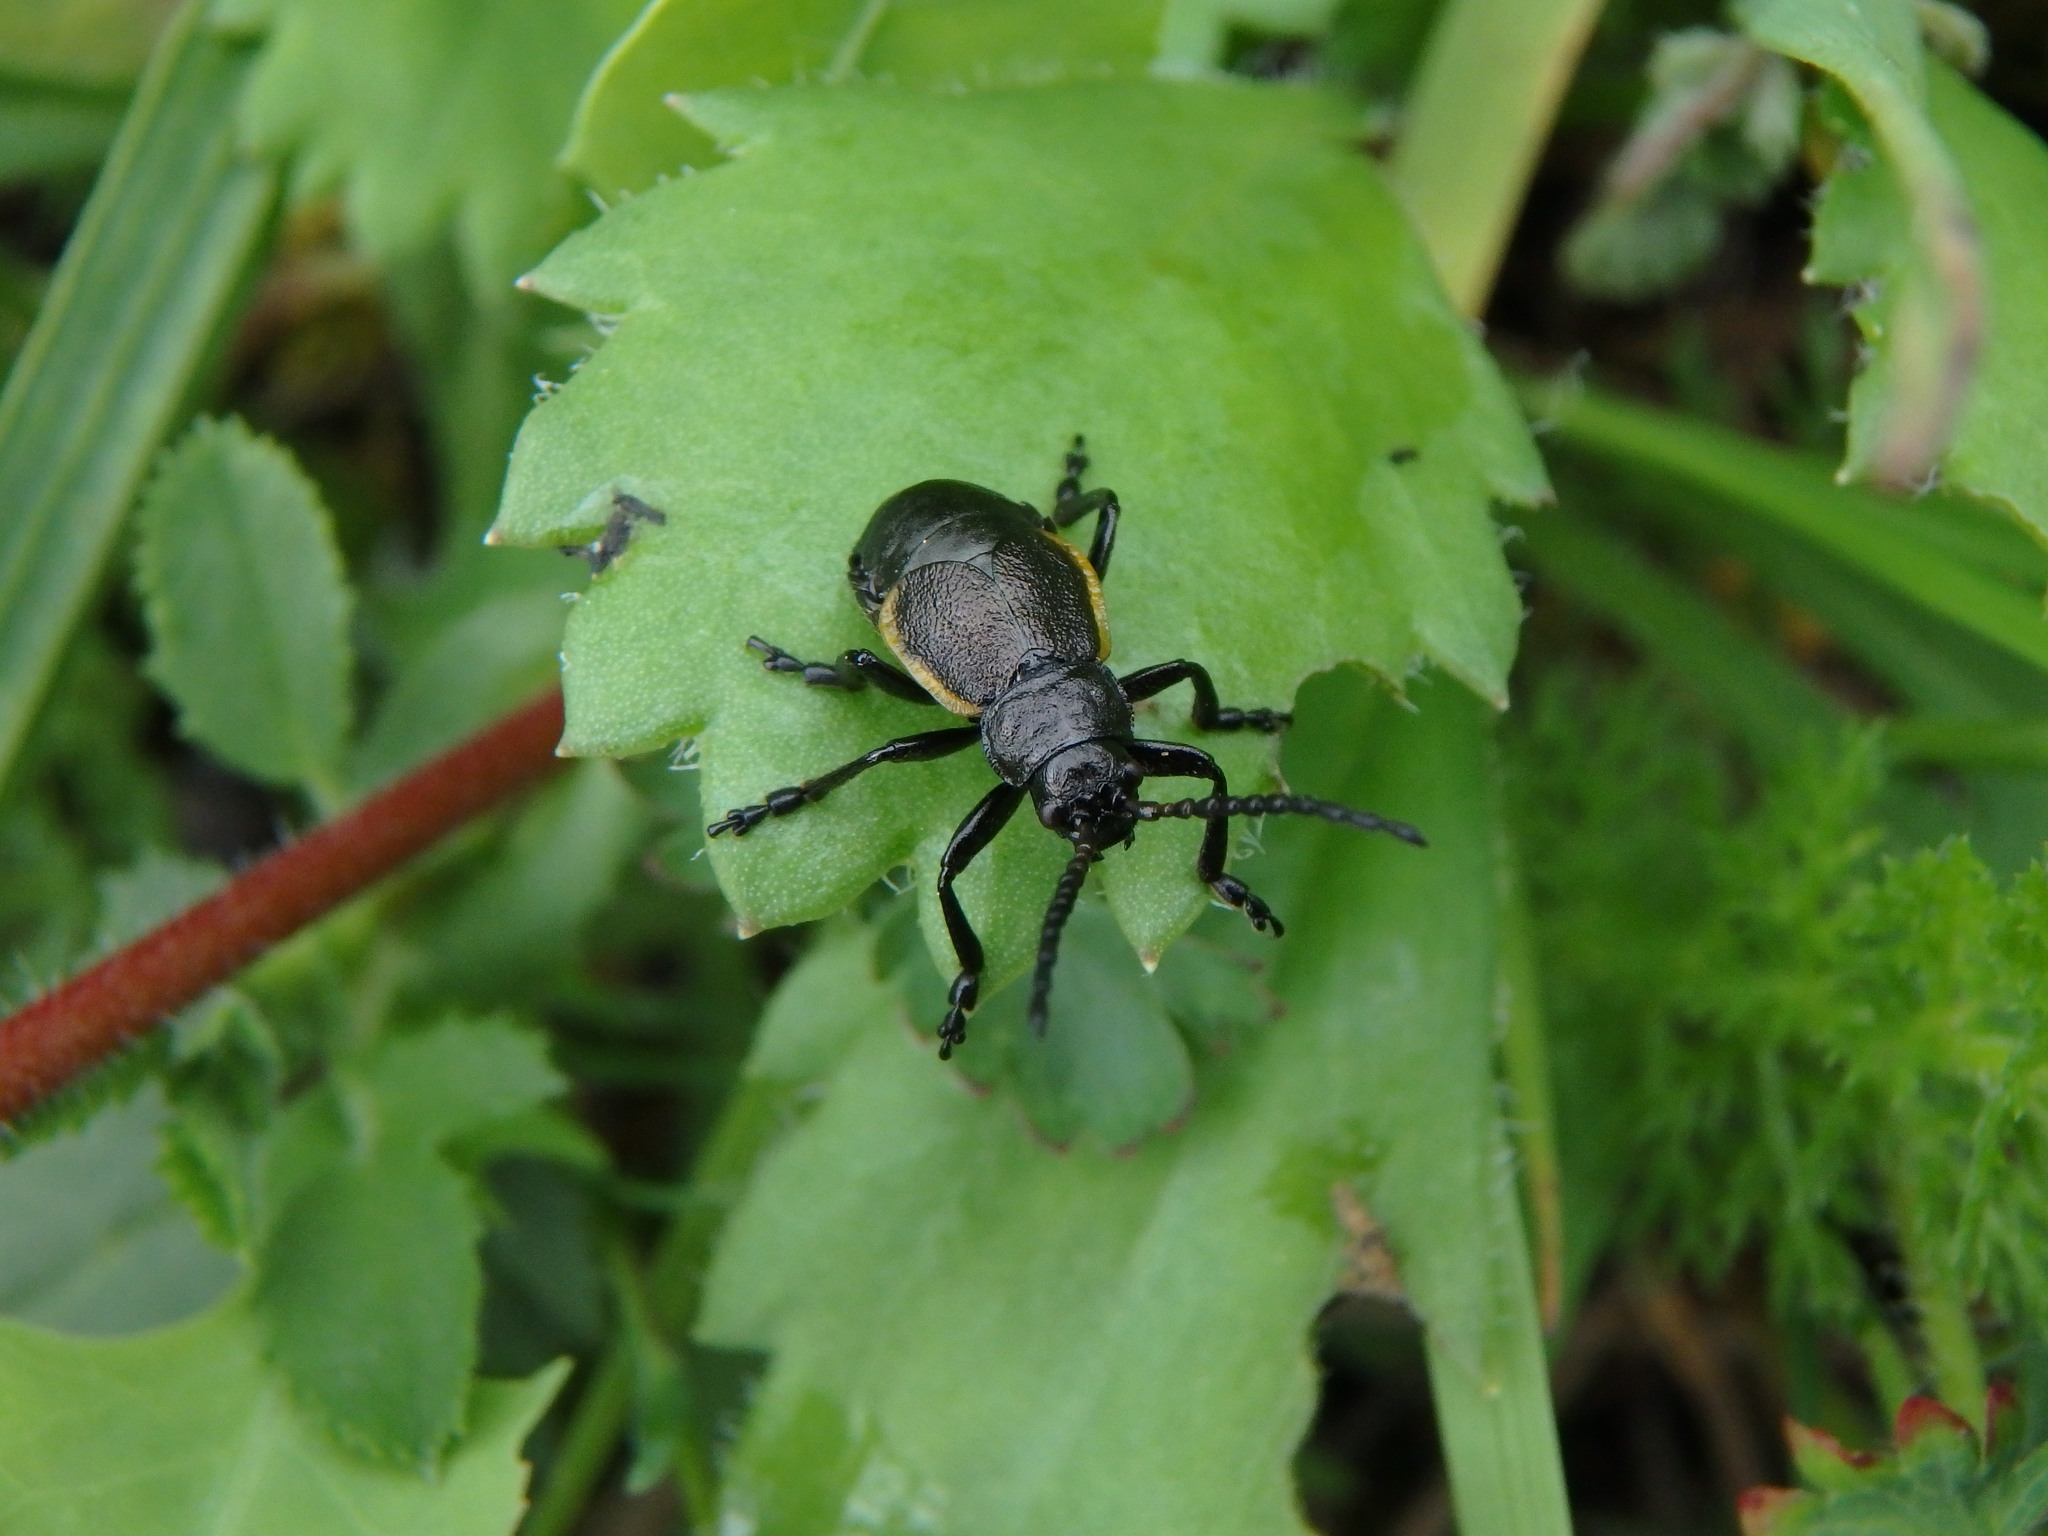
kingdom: Animalia
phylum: Arthropoda
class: Insecta
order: Coleoptera
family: Chrysomelidae
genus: Arima
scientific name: Arima marginata
